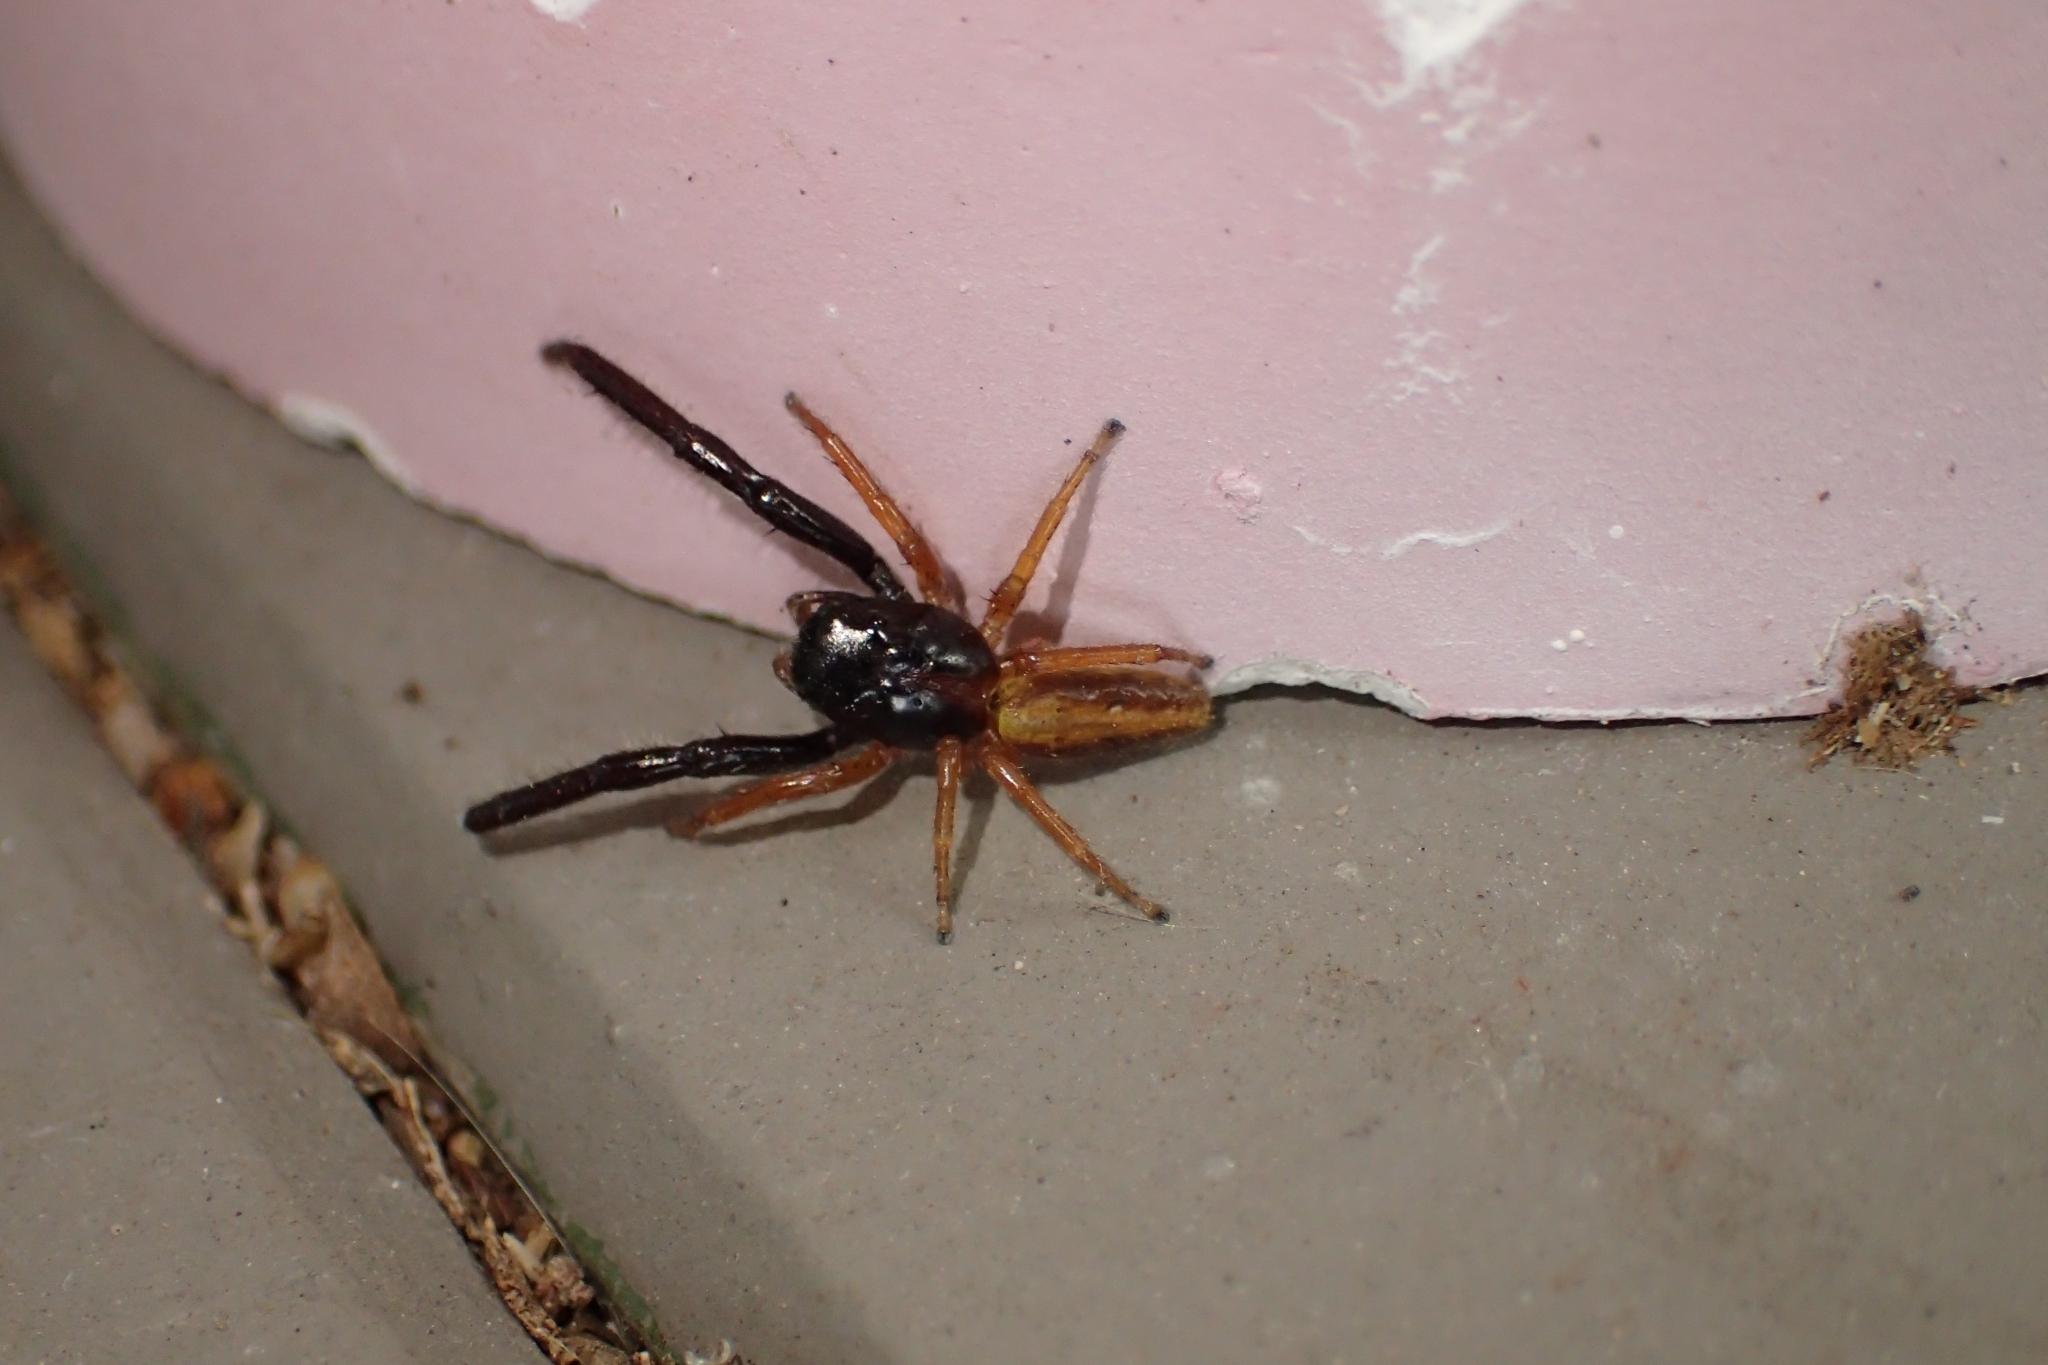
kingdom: Animalia
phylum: Arthropoda
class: Arachnida
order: Araneae
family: Salticidae
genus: Trite
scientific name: Trite planiceps
